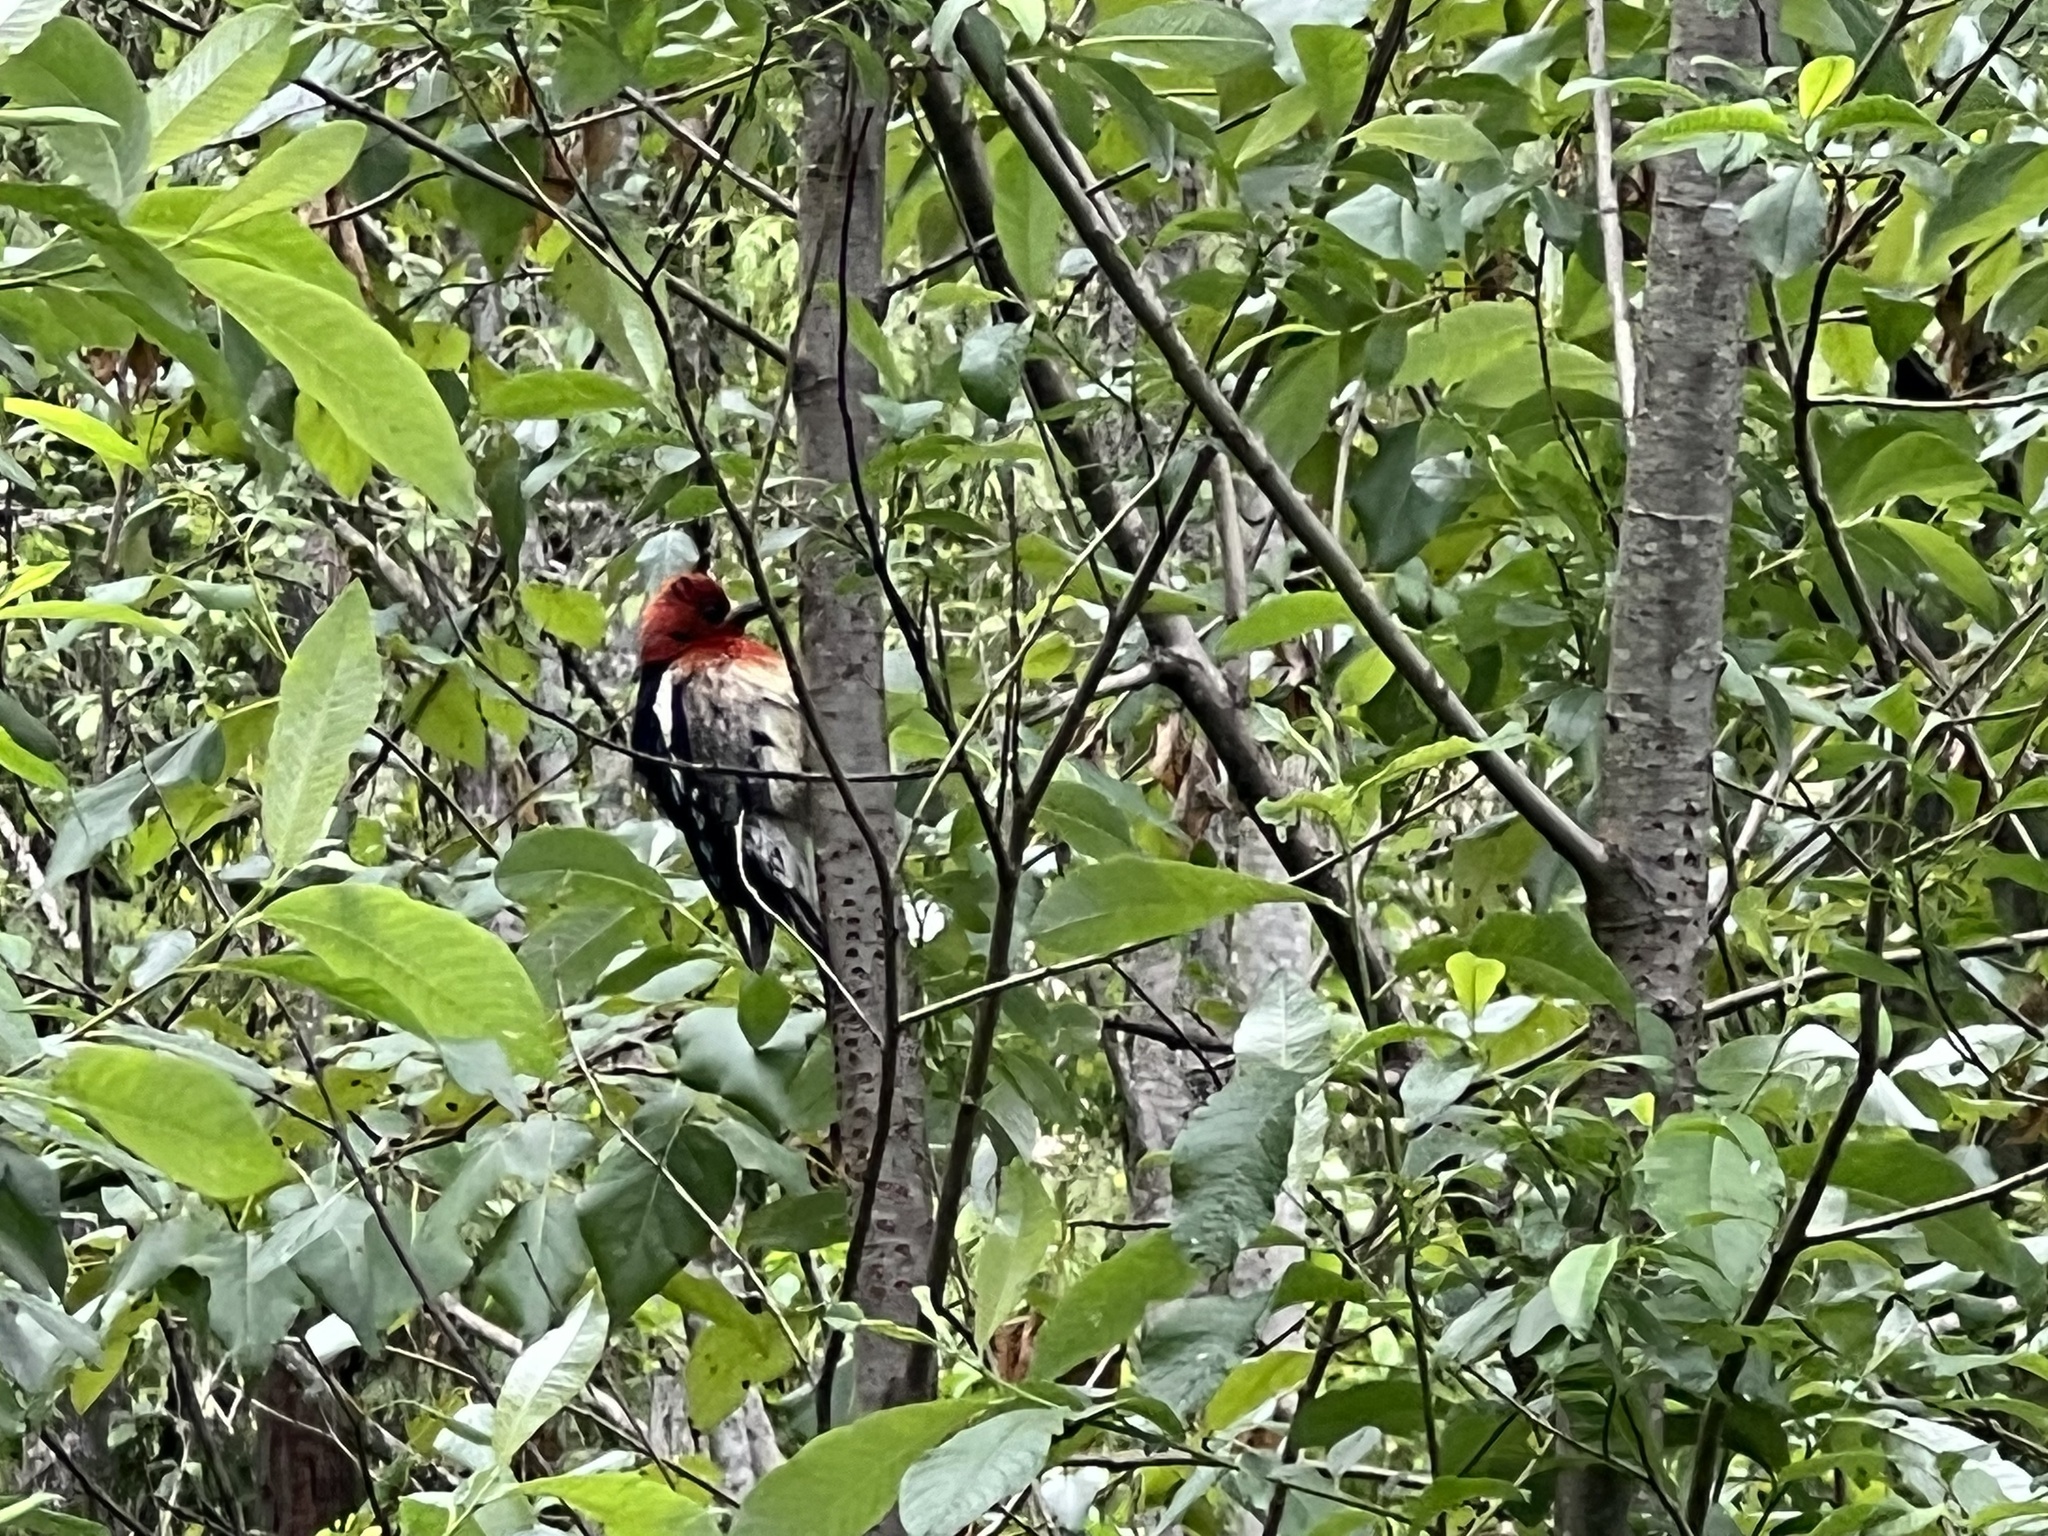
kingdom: Animalia
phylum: Chordata
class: Aves
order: Piciformes
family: Picidae
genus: Sphyrapicus
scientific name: Sphyrapicus ruber
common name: Red-breasted sapsucker
